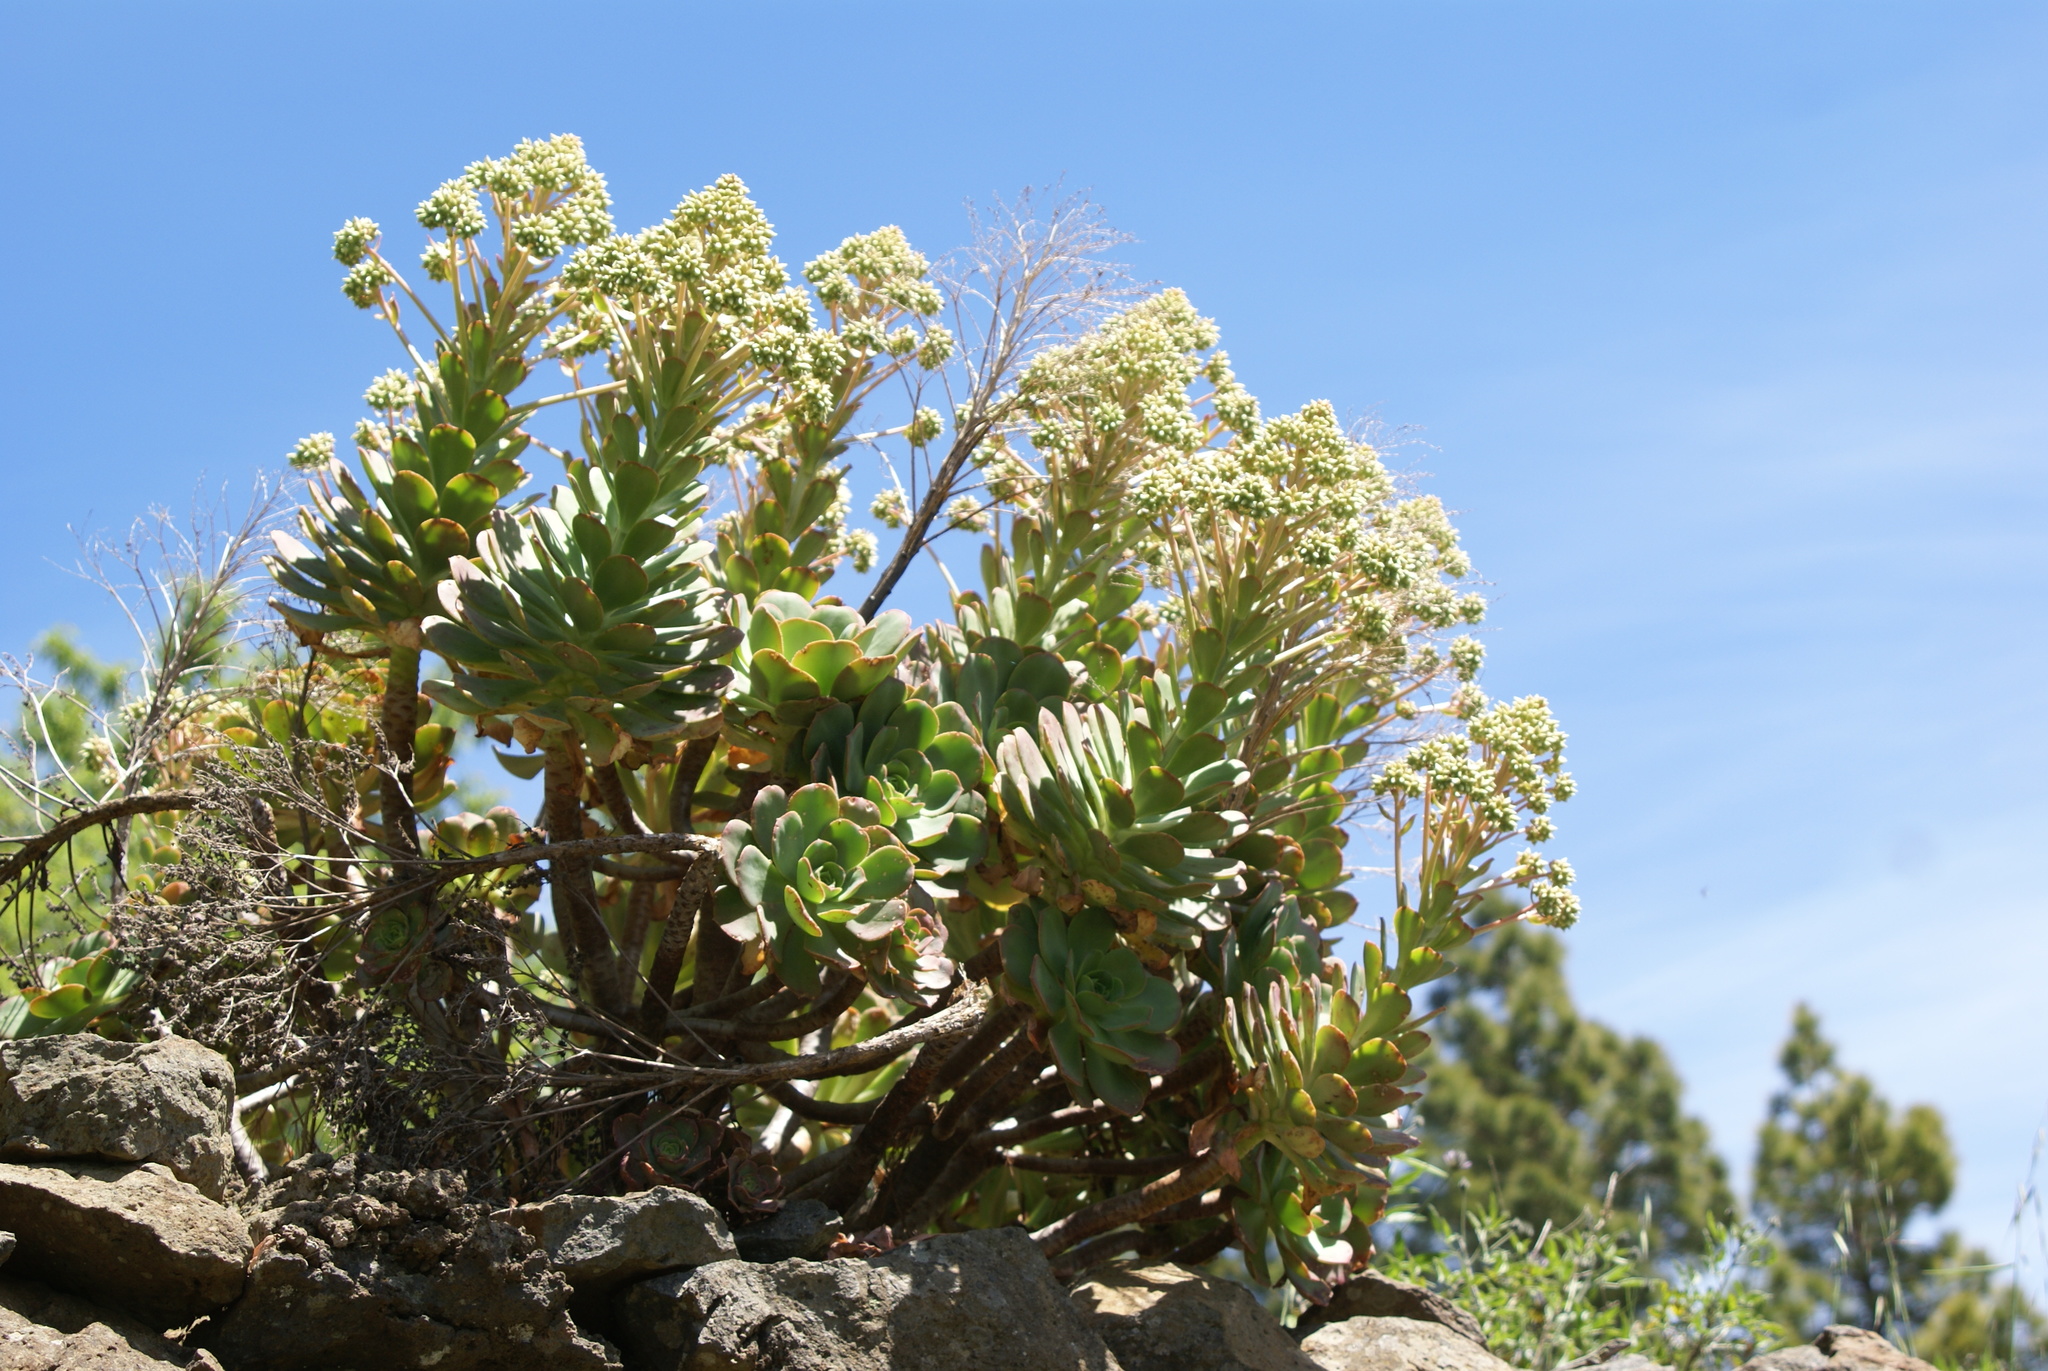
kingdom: Plantae
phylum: Tracheophyta
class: Magnoliopsida
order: Saxifragales
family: Crassulaceae
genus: Aeonium
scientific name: Aeonium davidbramwellii
